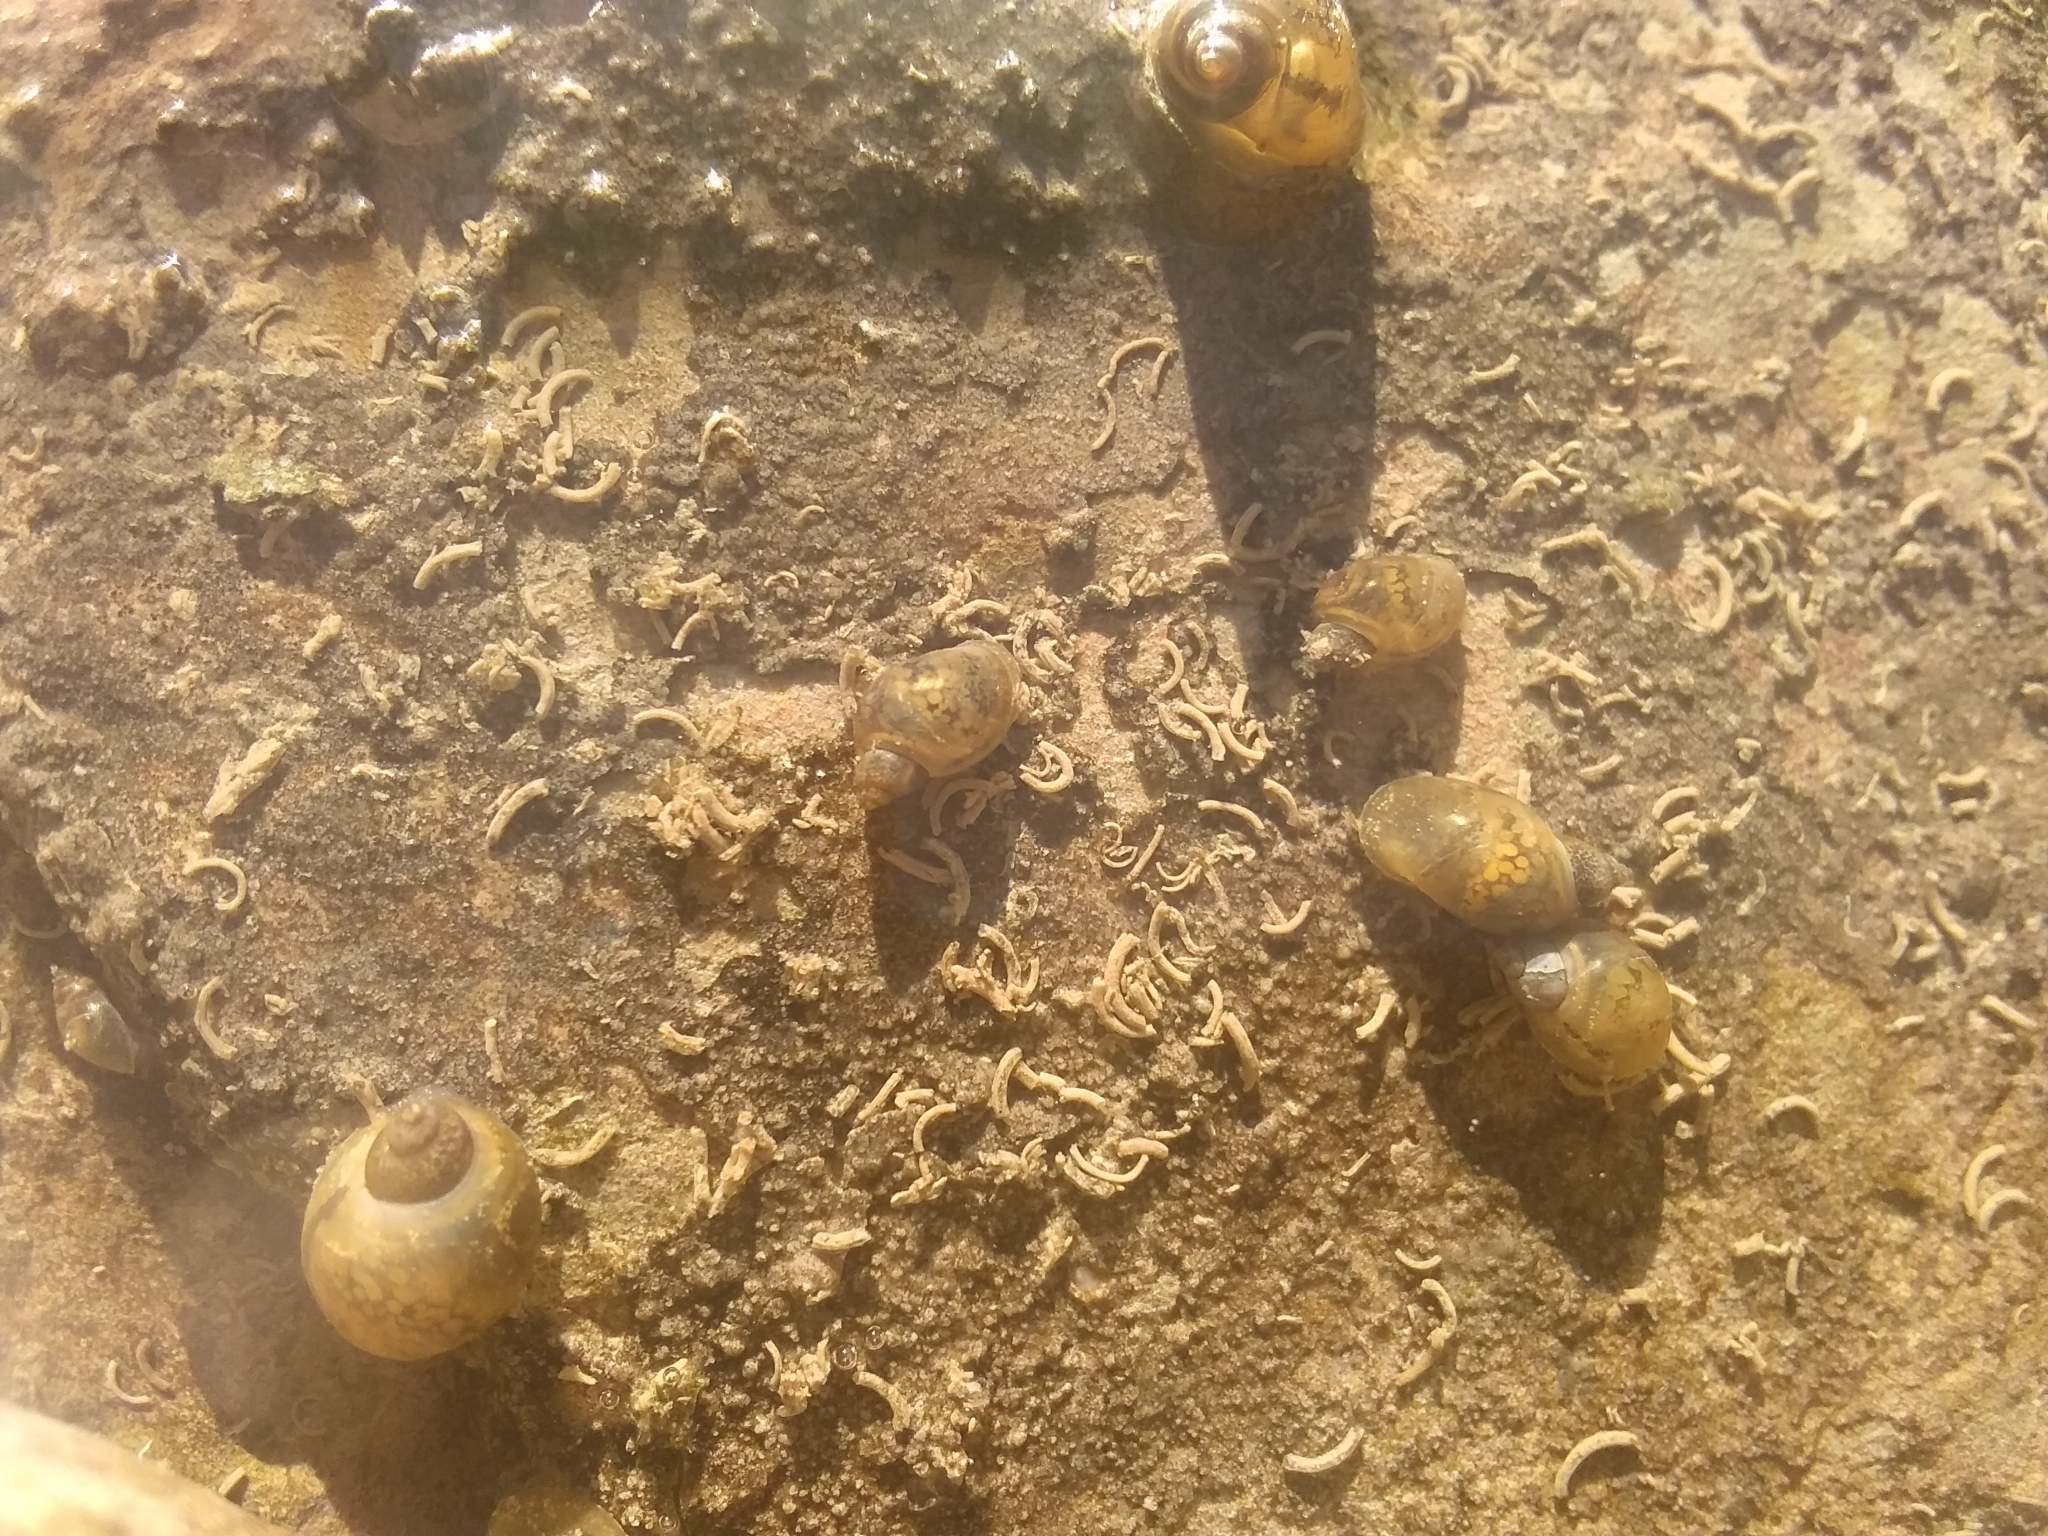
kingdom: Animalia
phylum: Mollusca
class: Gastropoda
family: Physidae
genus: Physella
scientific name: Physella acuta
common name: European physa
